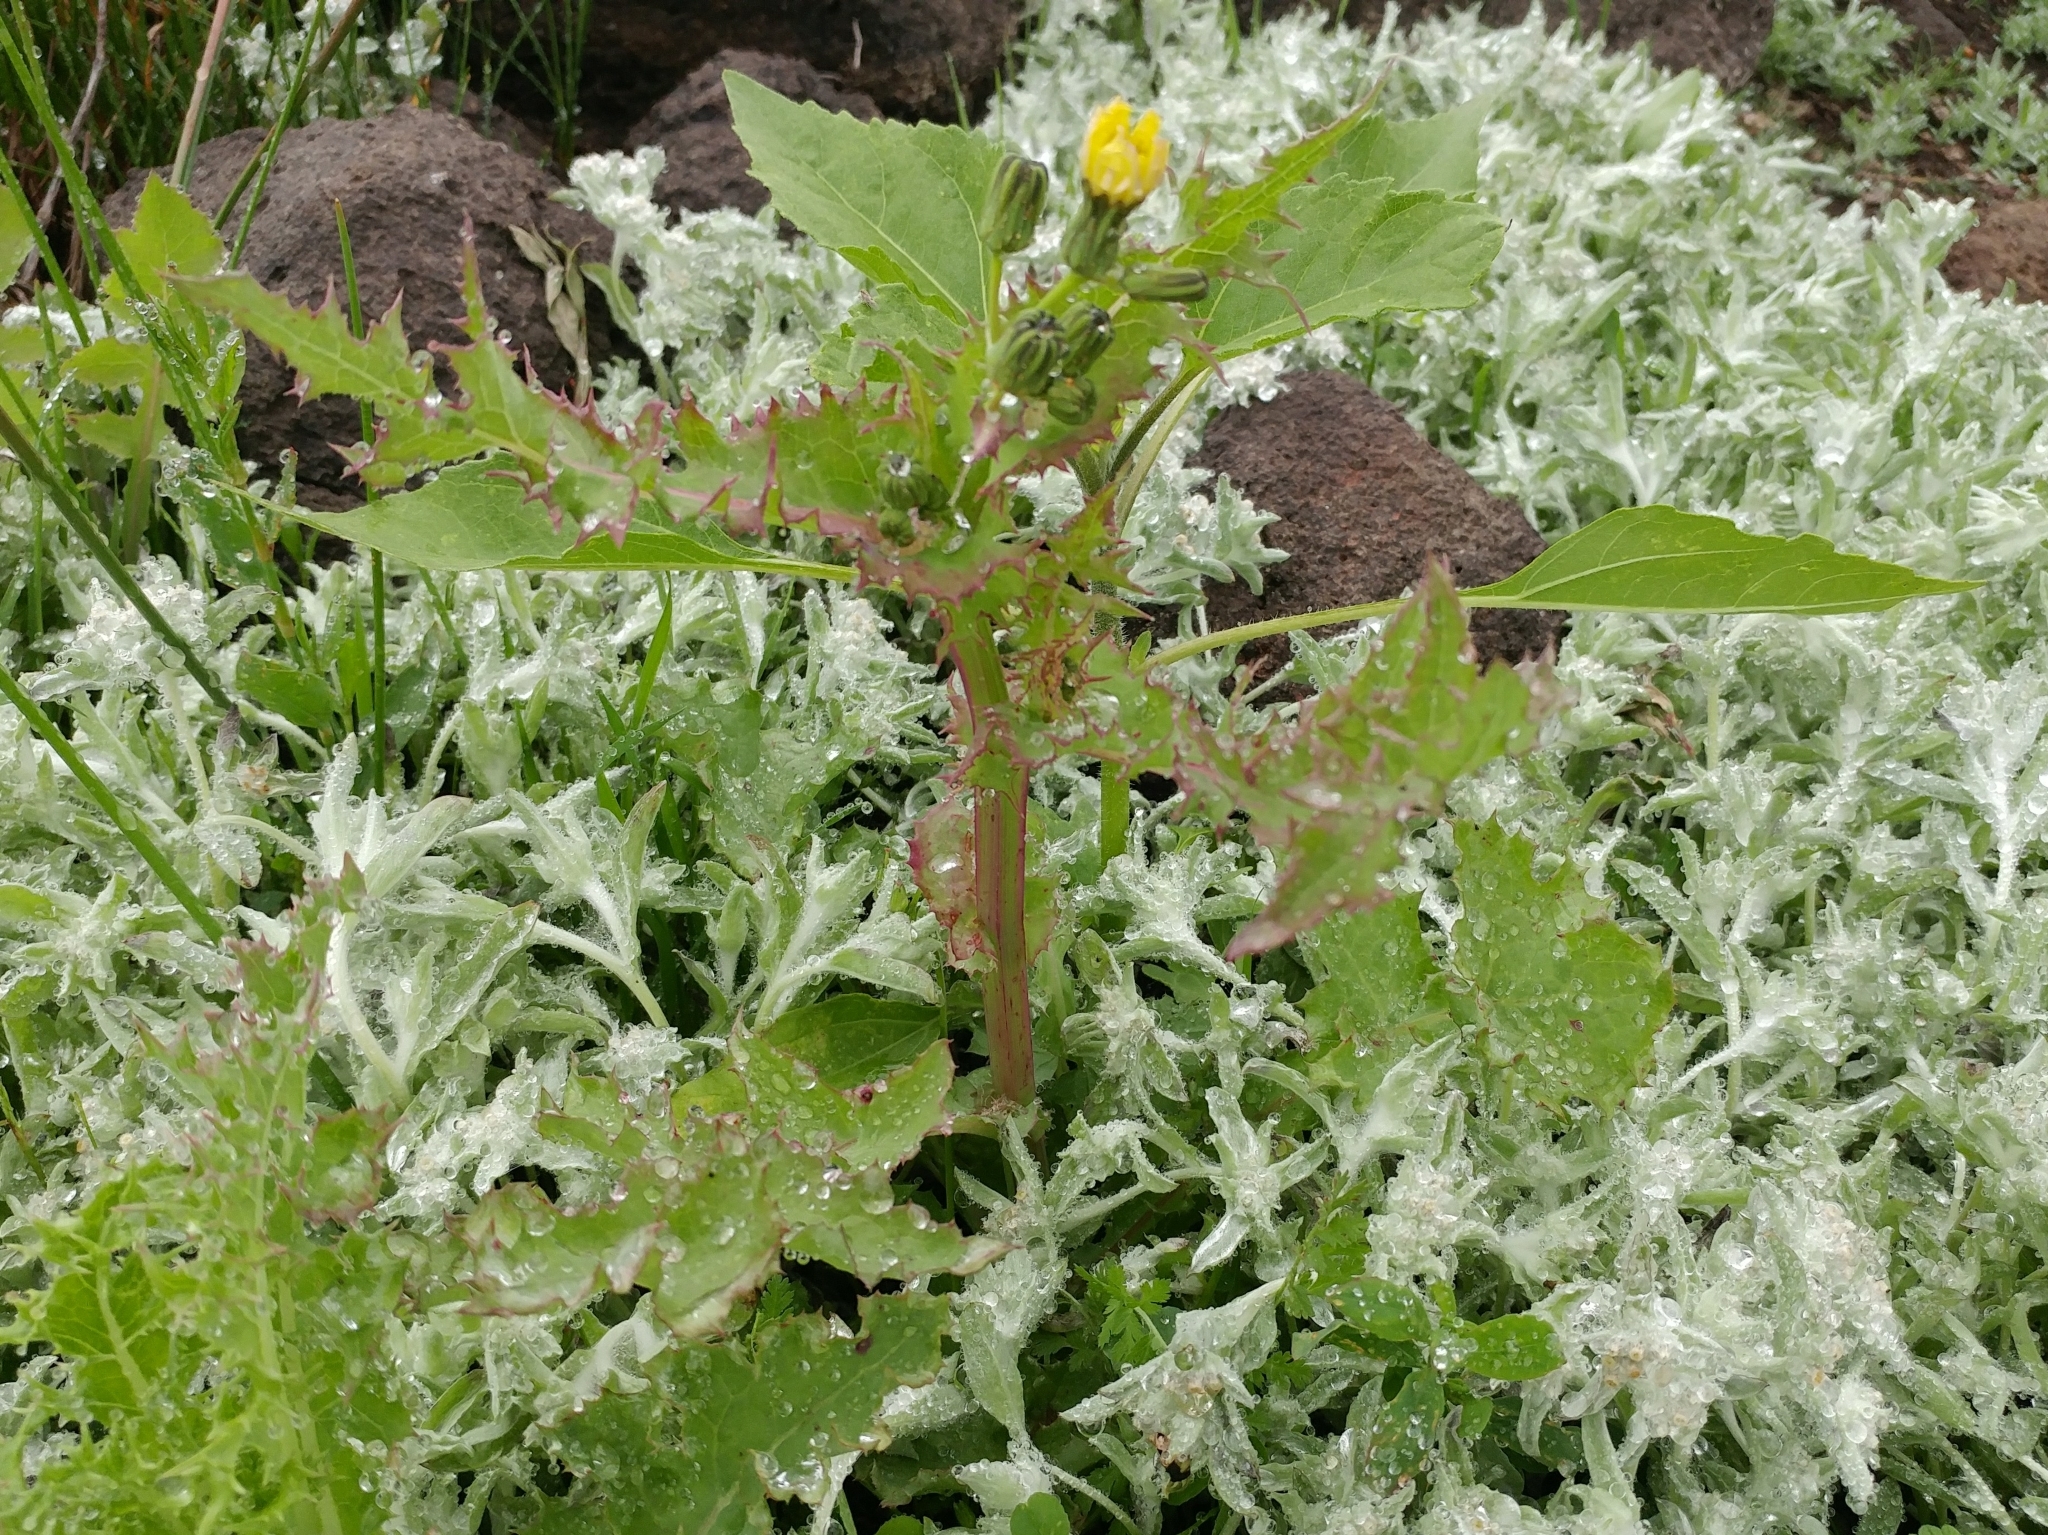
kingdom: Plantae
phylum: Tracheophyta
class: Magnoliopsida
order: Asterales
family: Asteraceae
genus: Sonchus
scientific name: Sonchus asper
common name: Prickly sow-thistle
